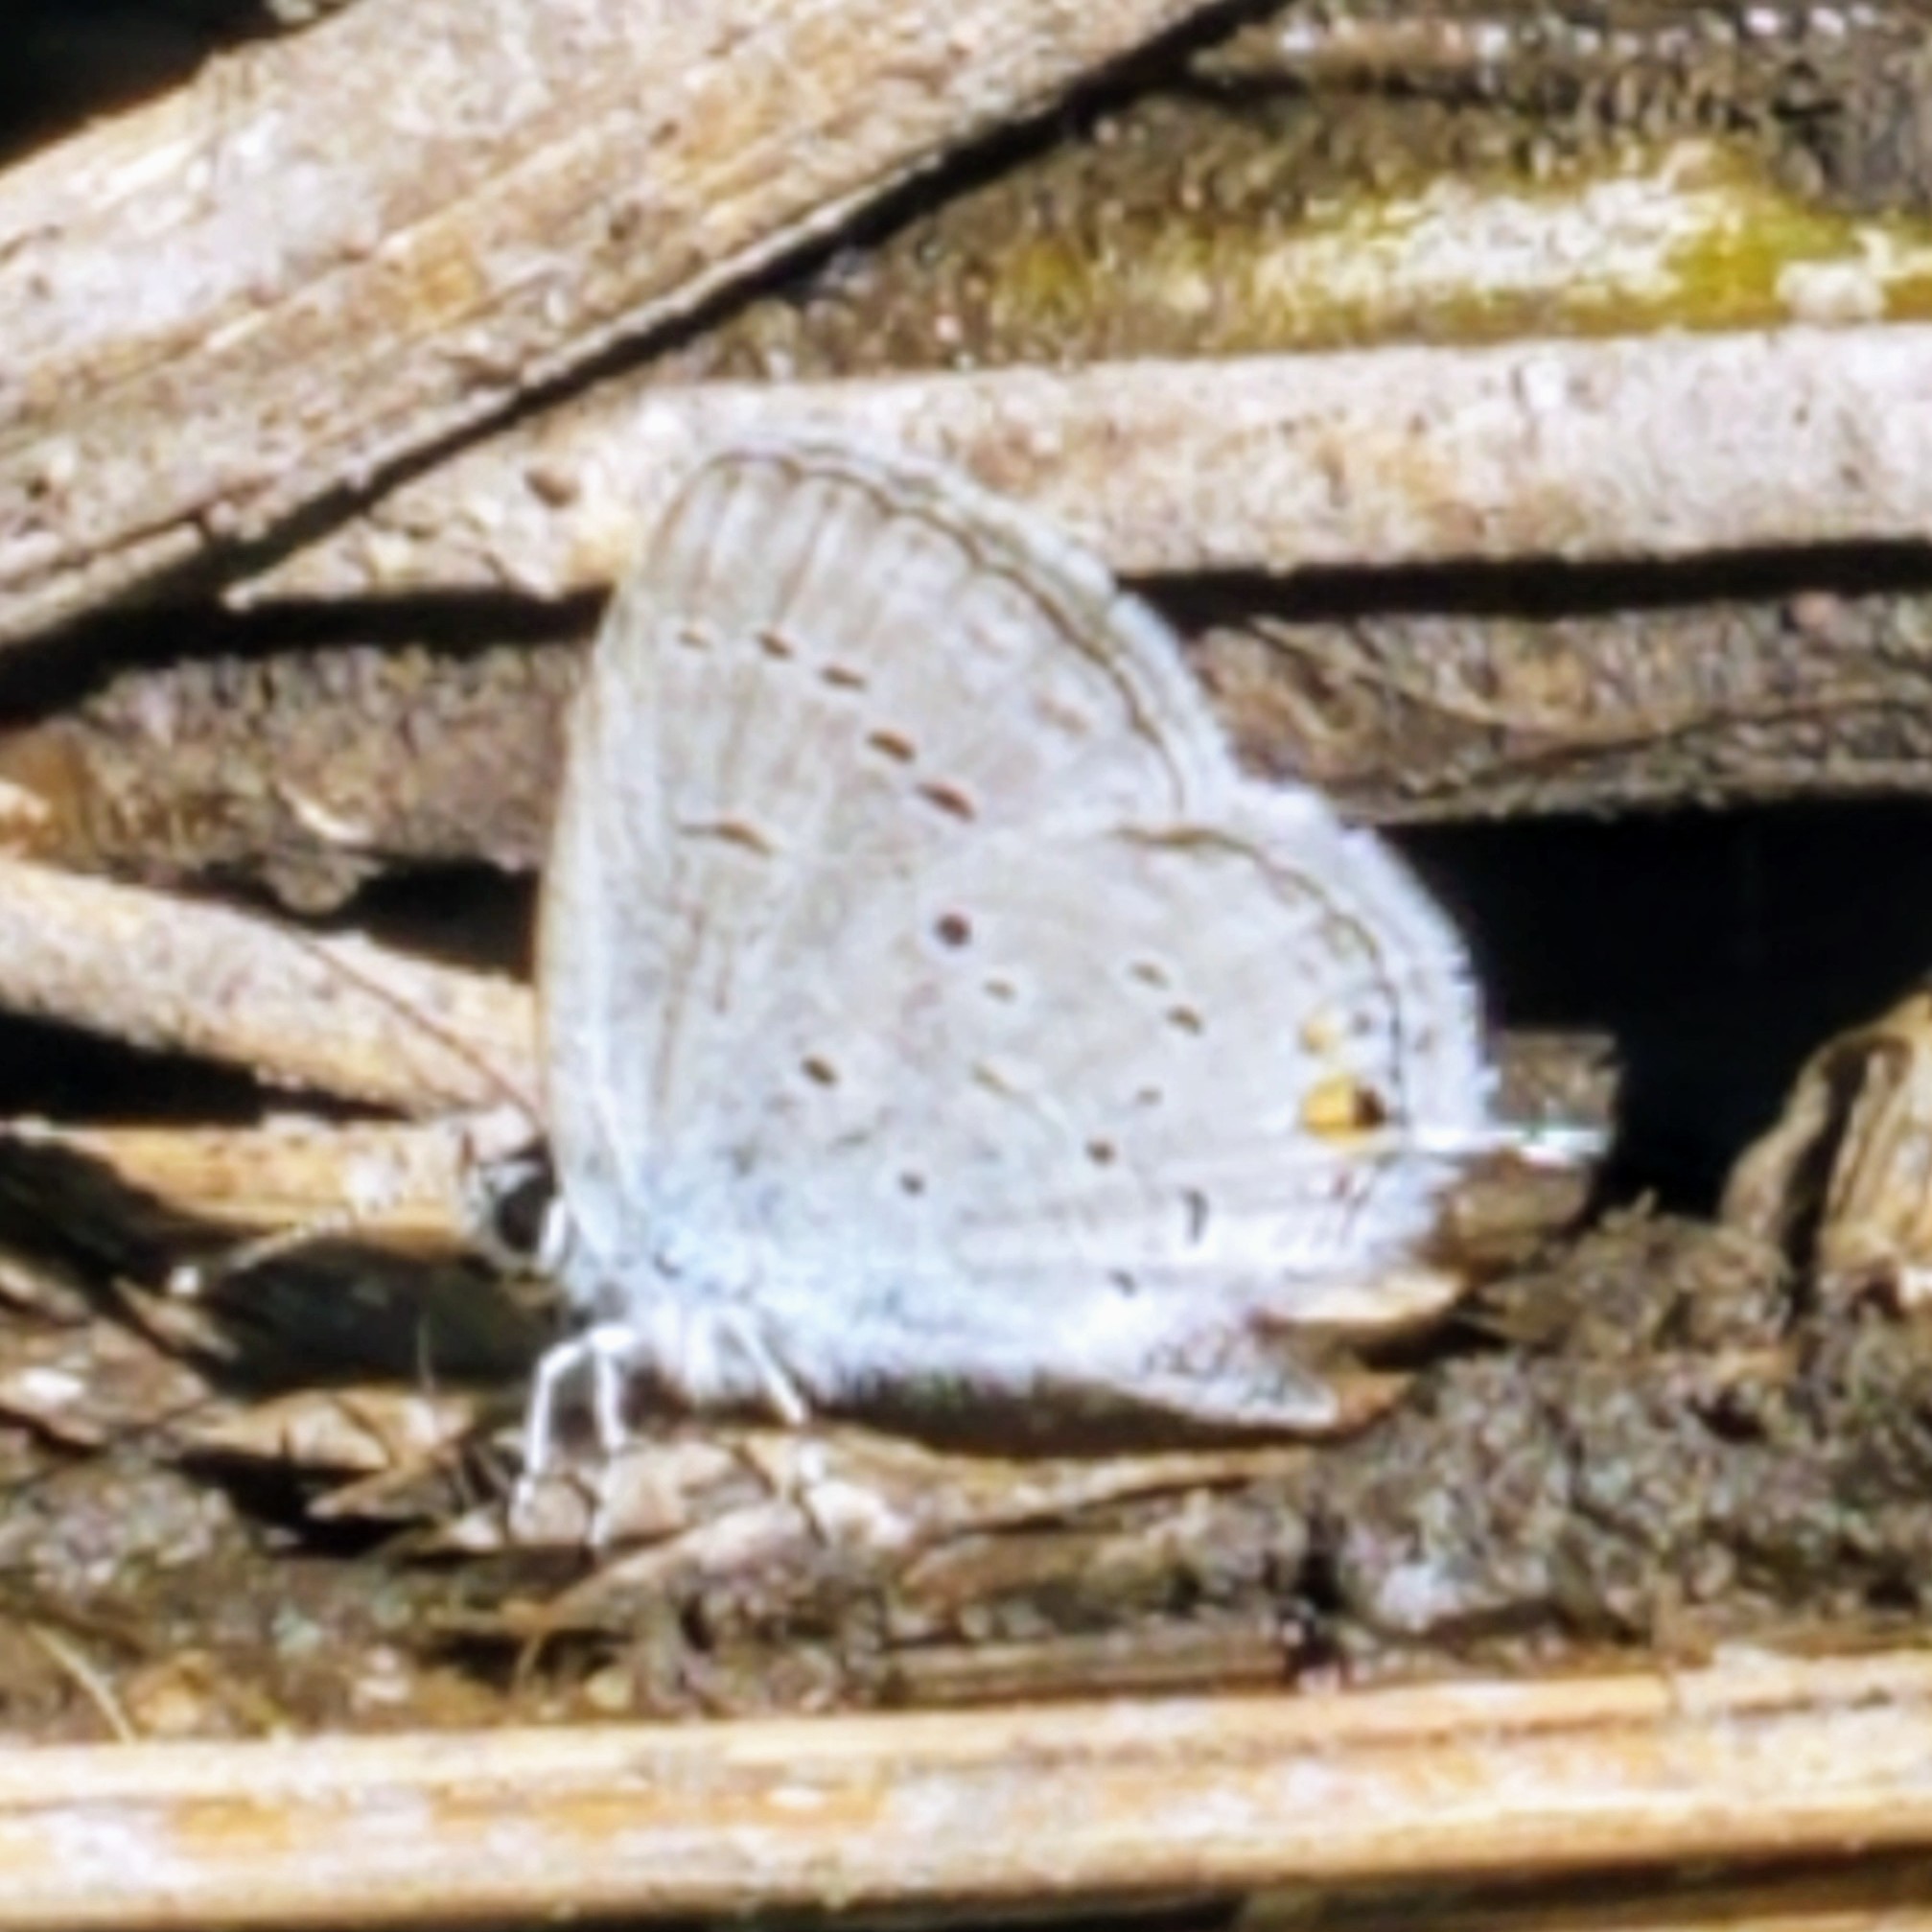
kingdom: Animalia
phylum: Arthropoda
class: Insecta
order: Lepidoptera
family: Lycaenidae
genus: Elkalyce
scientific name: Elkalyce amyntula
